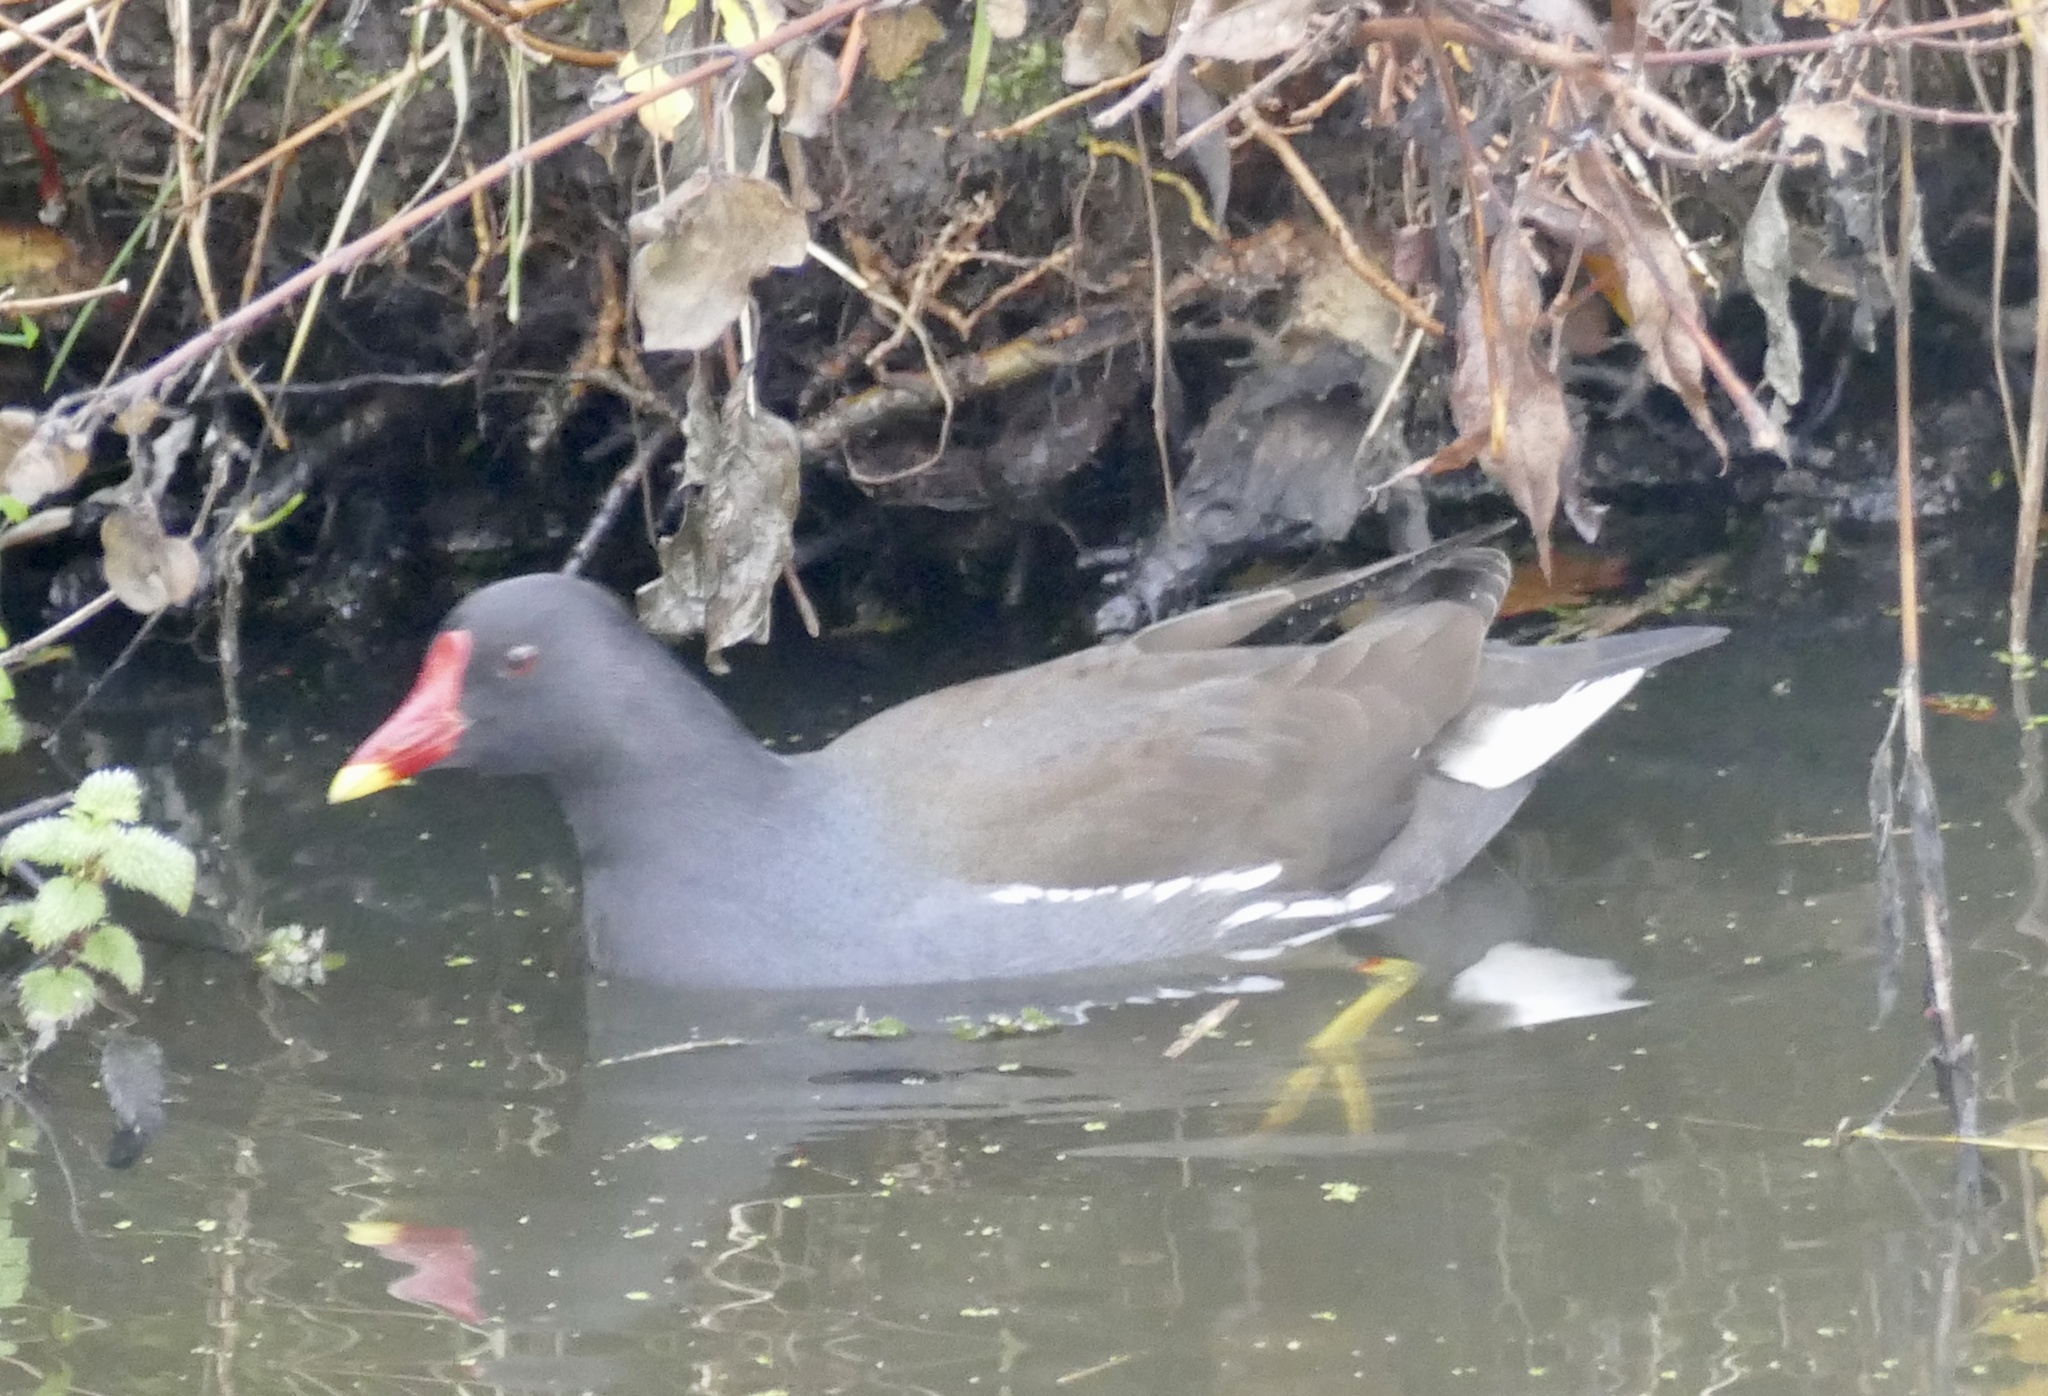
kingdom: Animalia
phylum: Chordata
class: Aves
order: Gruiformes
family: Rallidae
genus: Gallinula
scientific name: Gallinula chloropus
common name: Common moorhen
